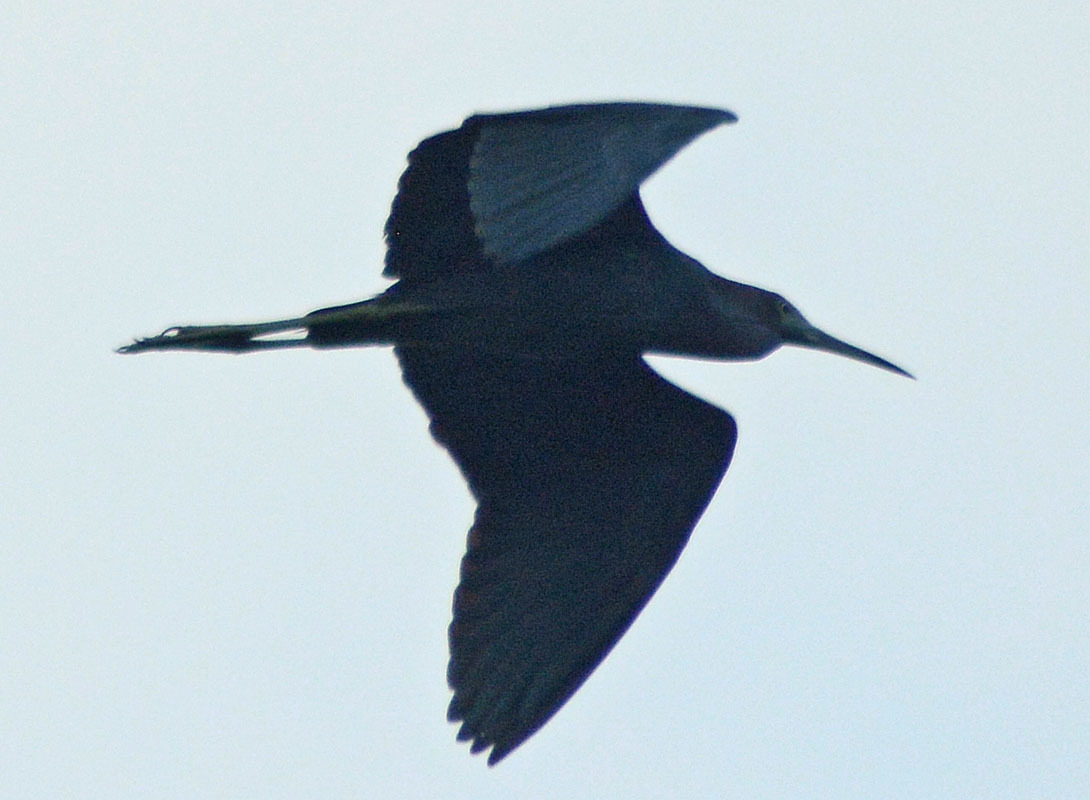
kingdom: Animalia
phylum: Chordata
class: Aves
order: Pelecaniformes
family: Ardeidae
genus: Egretta
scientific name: Egretta caerulea
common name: Little blue heron
